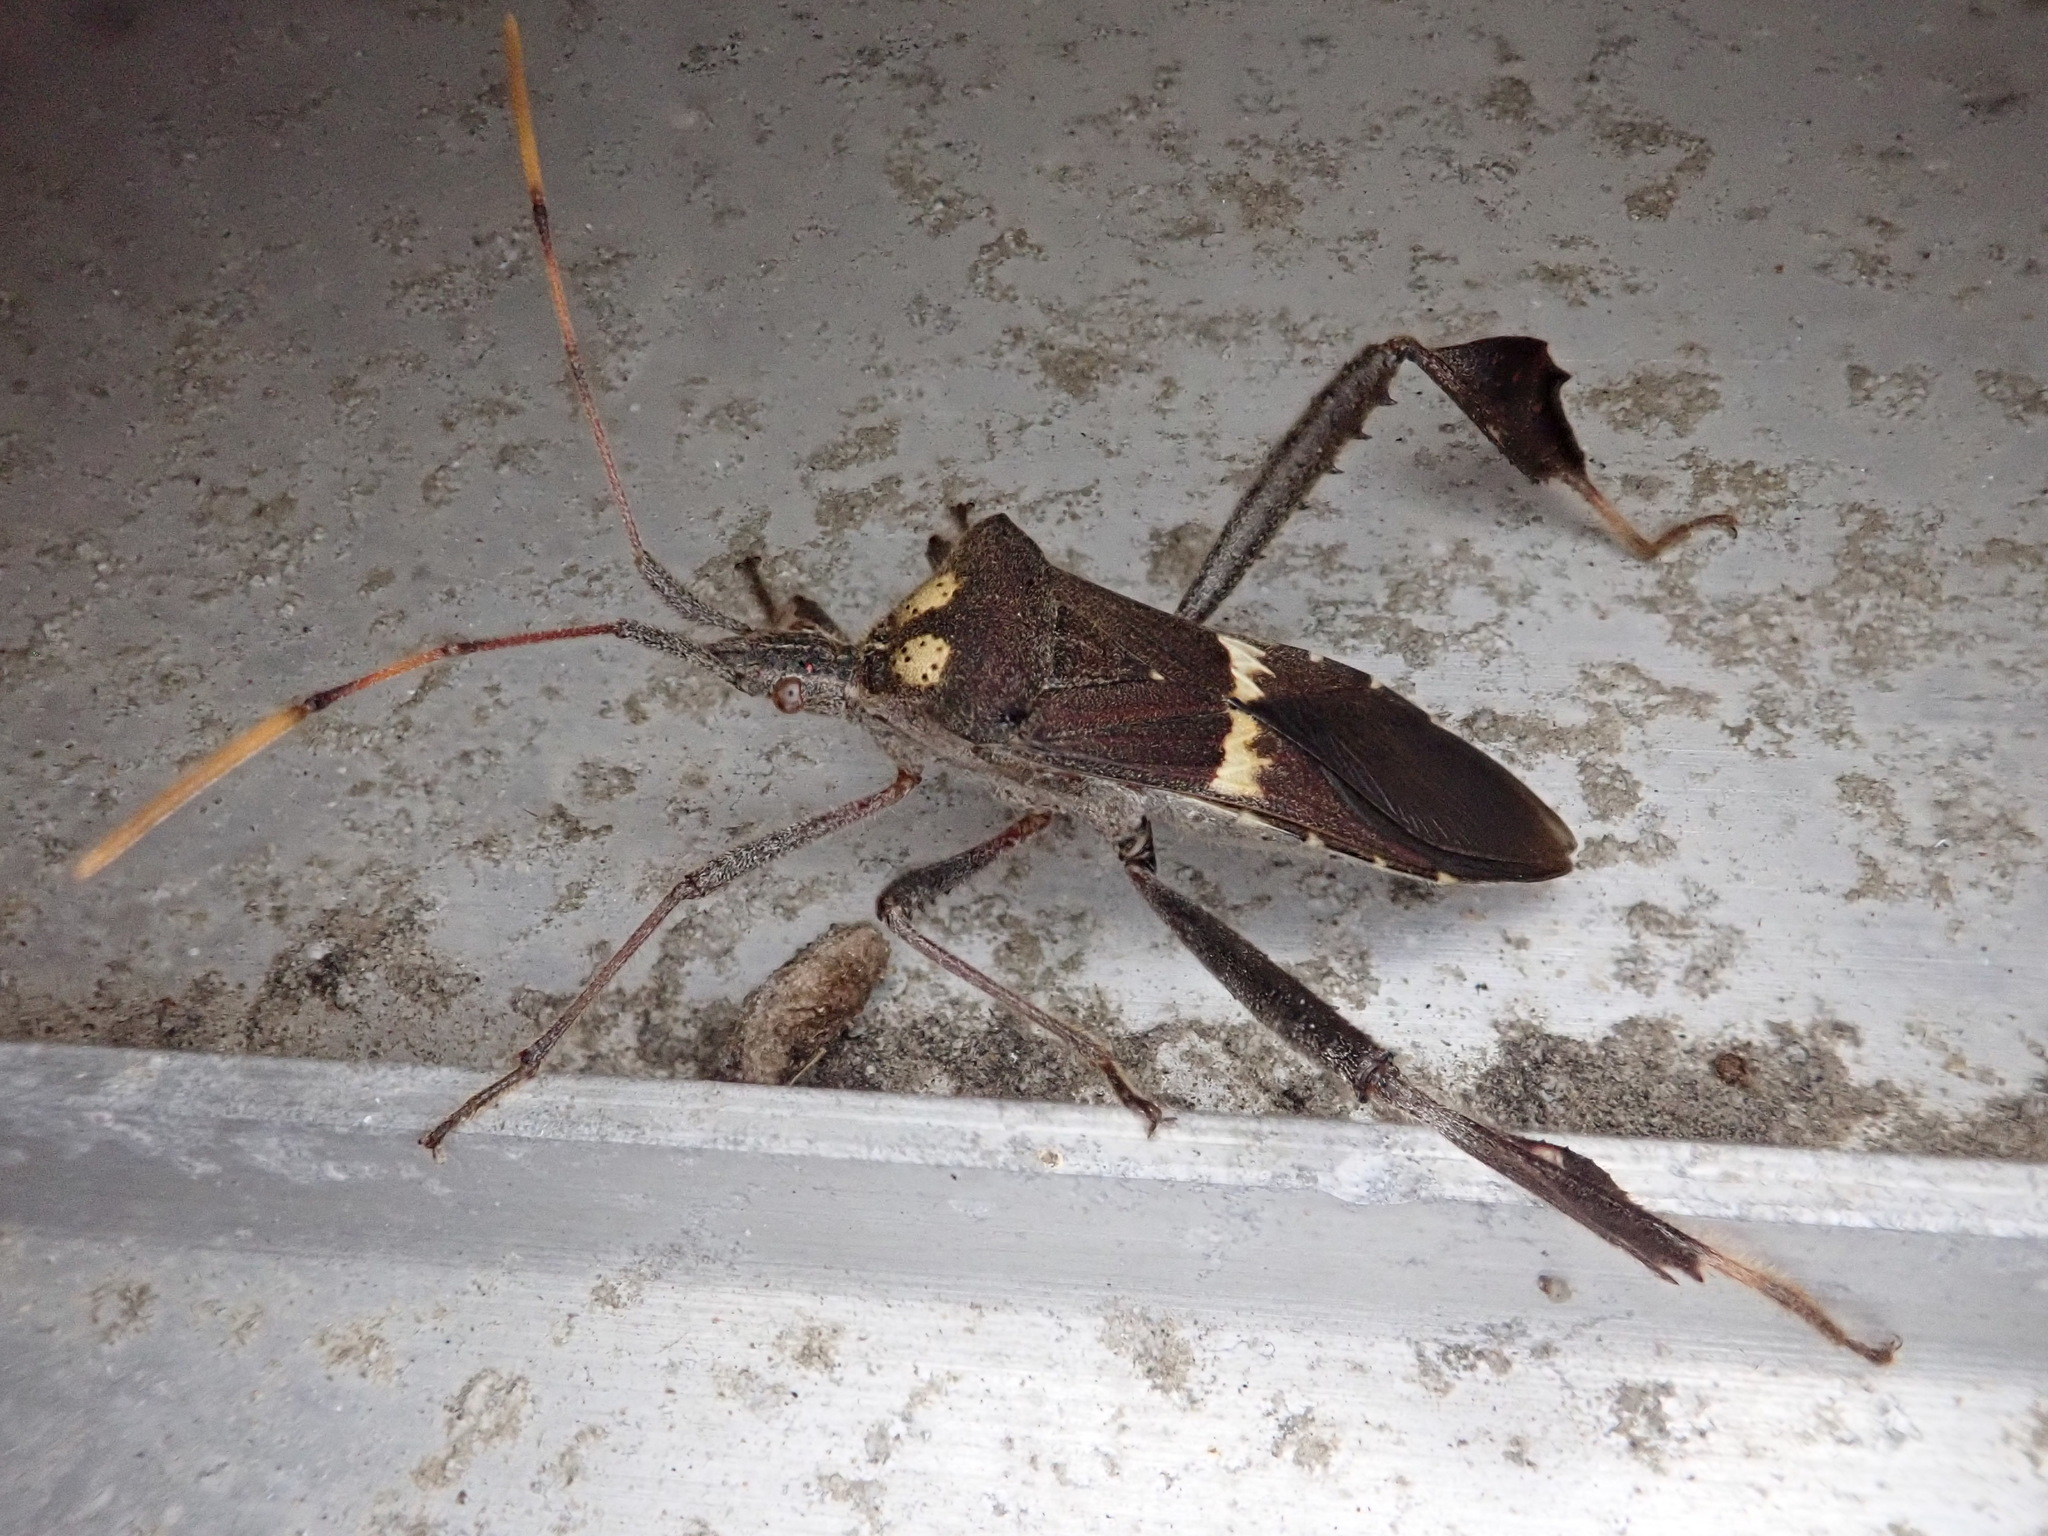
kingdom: Animalia
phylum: Arthropoda
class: Insecta
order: Hemiptera
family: Coreidae
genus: Leptoglossus
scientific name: Leptoglossus zonatus
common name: Large-legged bug
